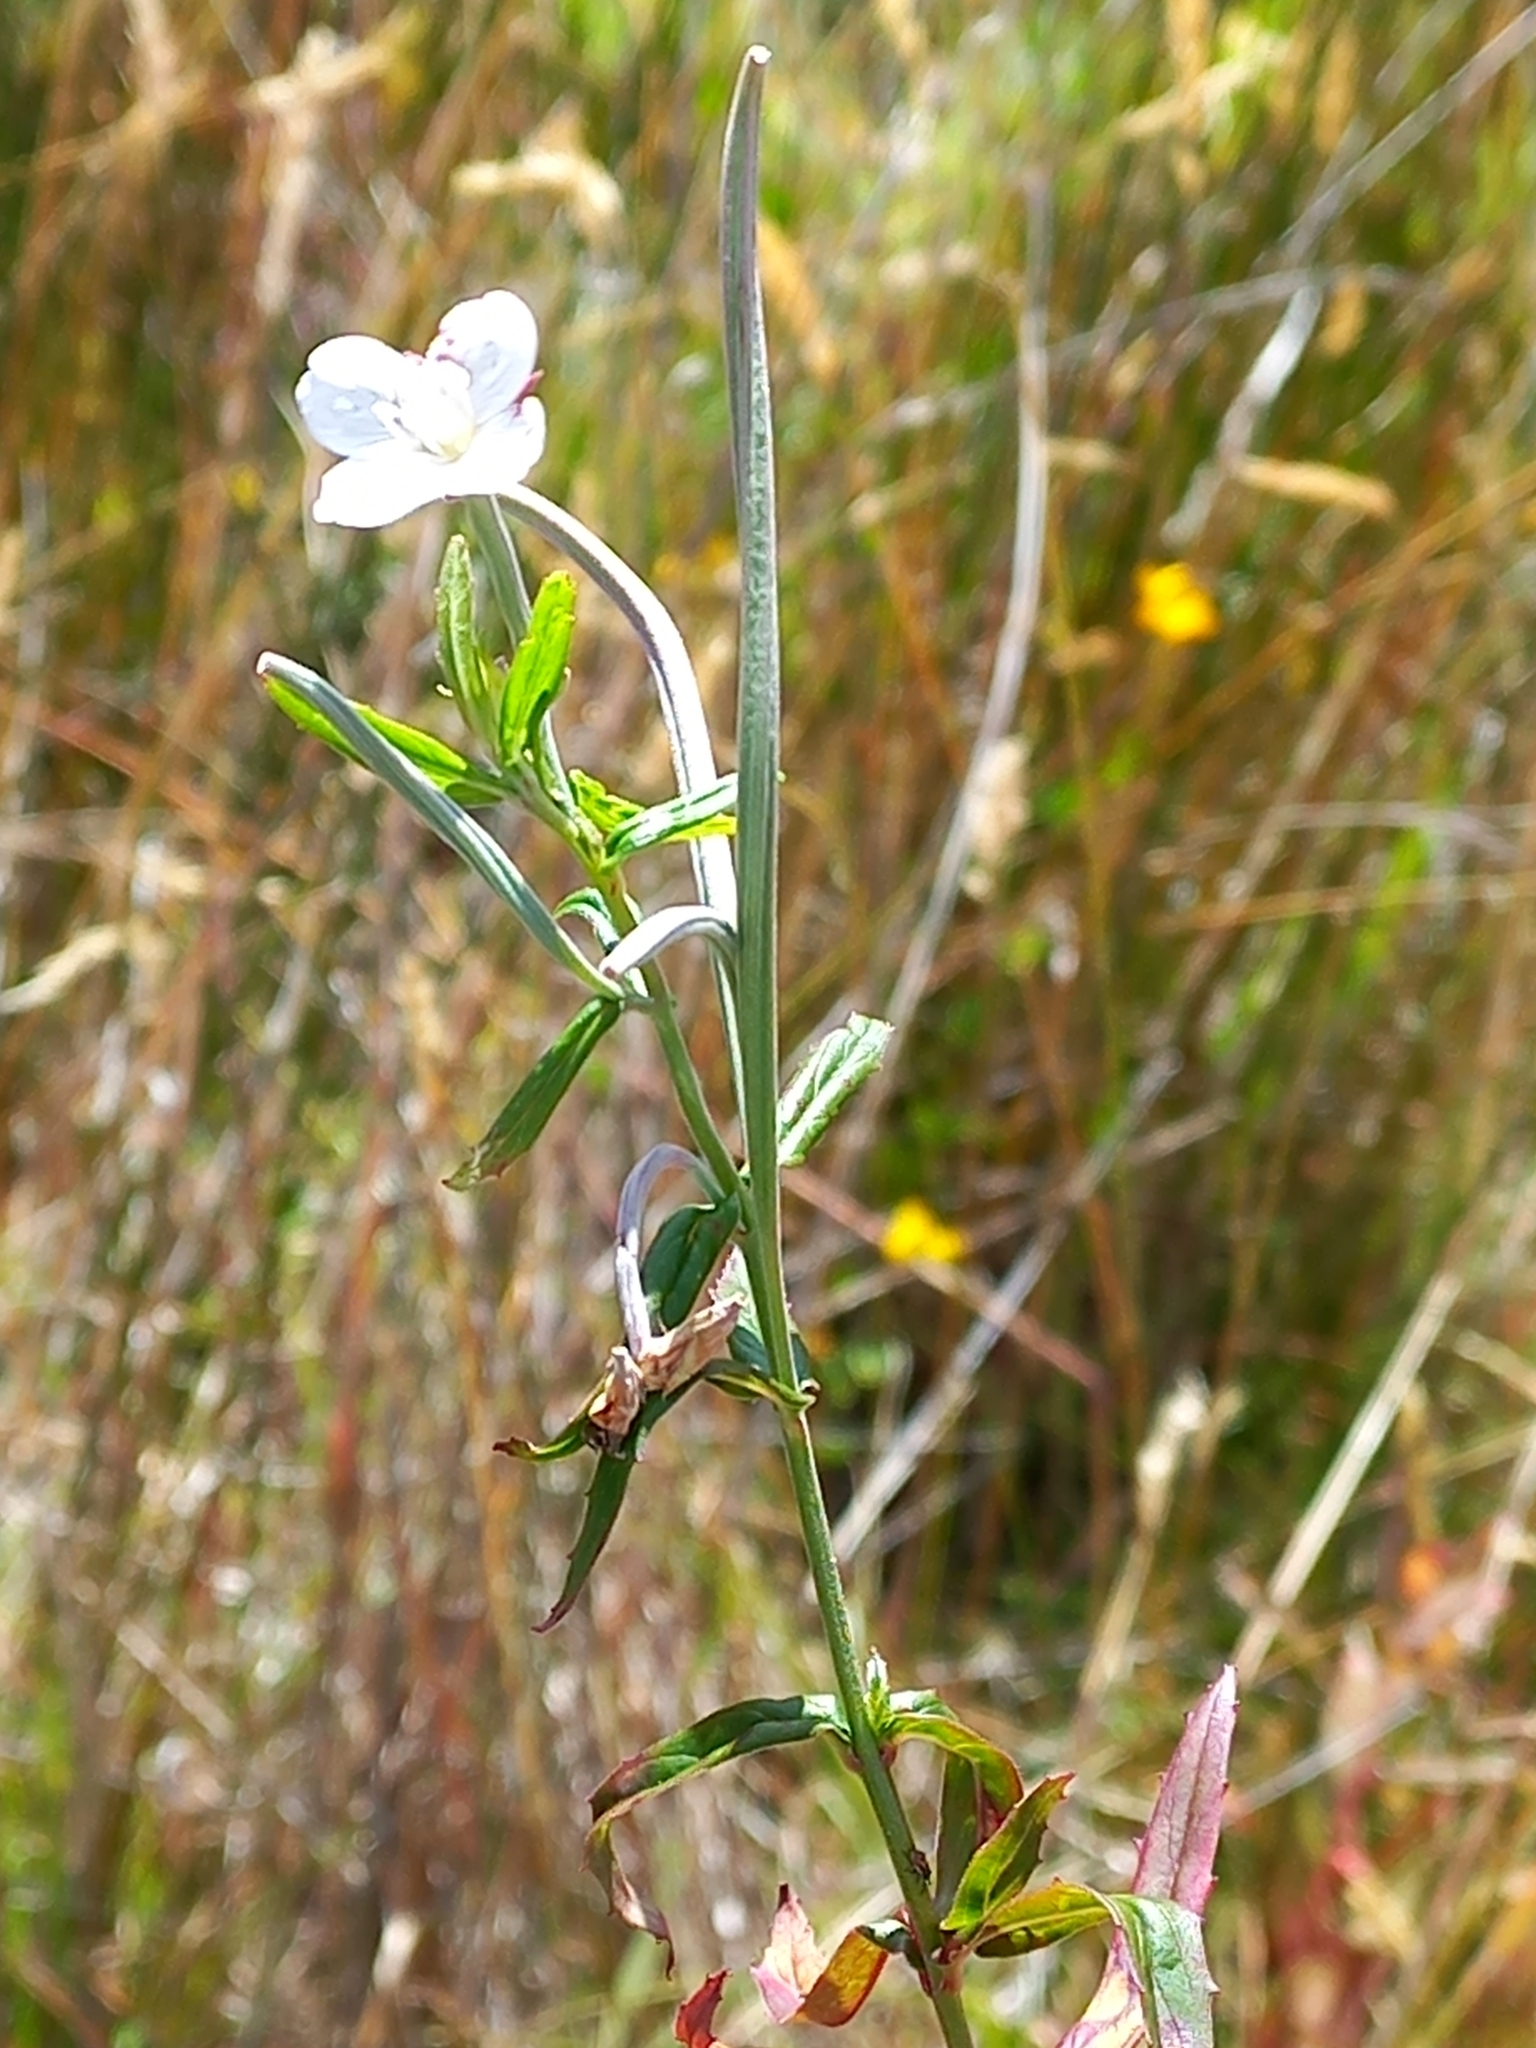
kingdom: Plantae
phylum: Tracheophyta
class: Magnoliopsida
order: Myrtales
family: Onagraceae
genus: Epilobium
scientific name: Epilobium pallidiflorum
